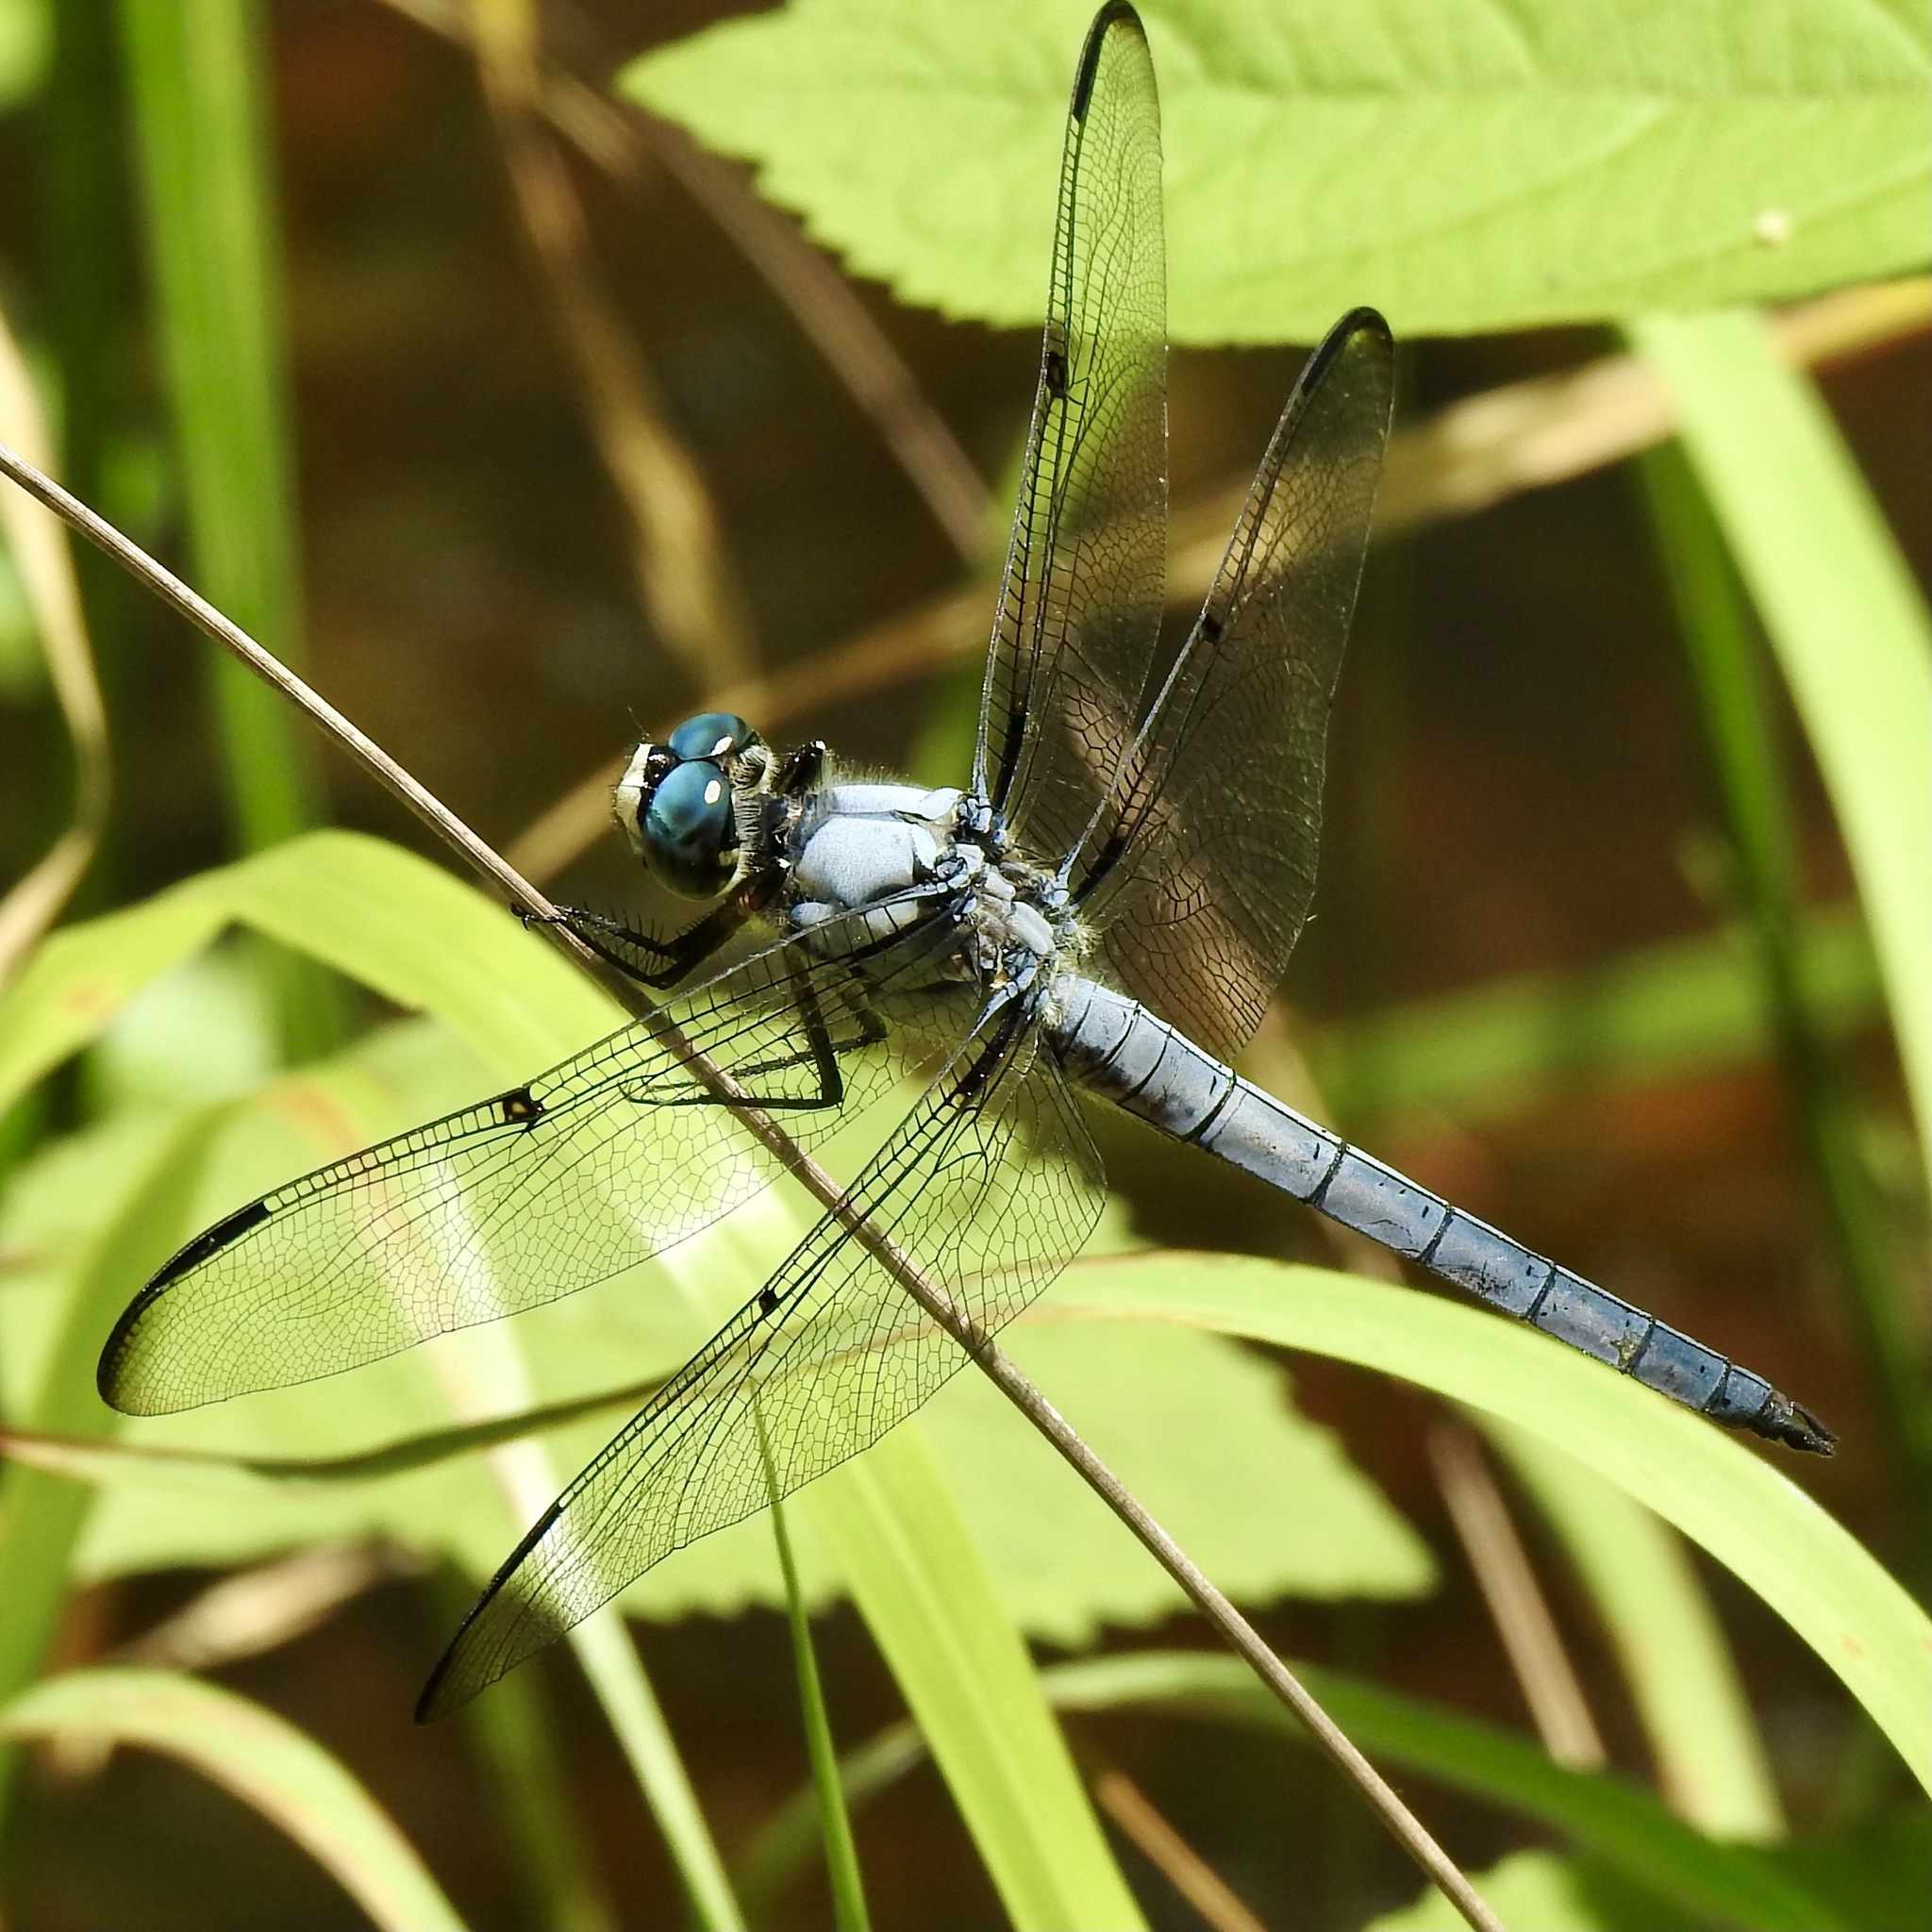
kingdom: Animalia
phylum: Arthropoda
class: Insecta
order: Odonata
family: Libellulidae
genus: Libellula
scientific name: Libellula vibrans
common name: Great blue skimmer
